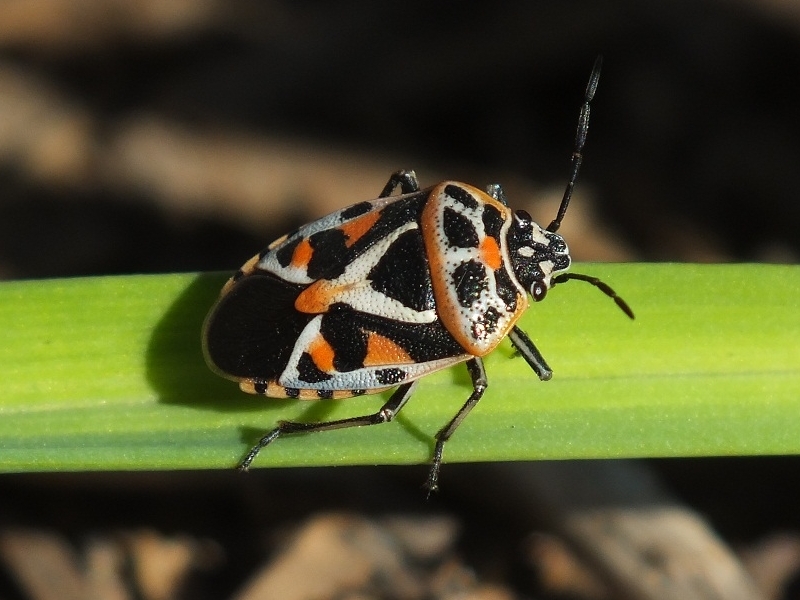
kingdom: Animalia
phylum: Arthropoda
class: Insecta
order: Hemiptera
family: Pentatomidae
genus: Eurydema
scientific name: Eurydema ornata
